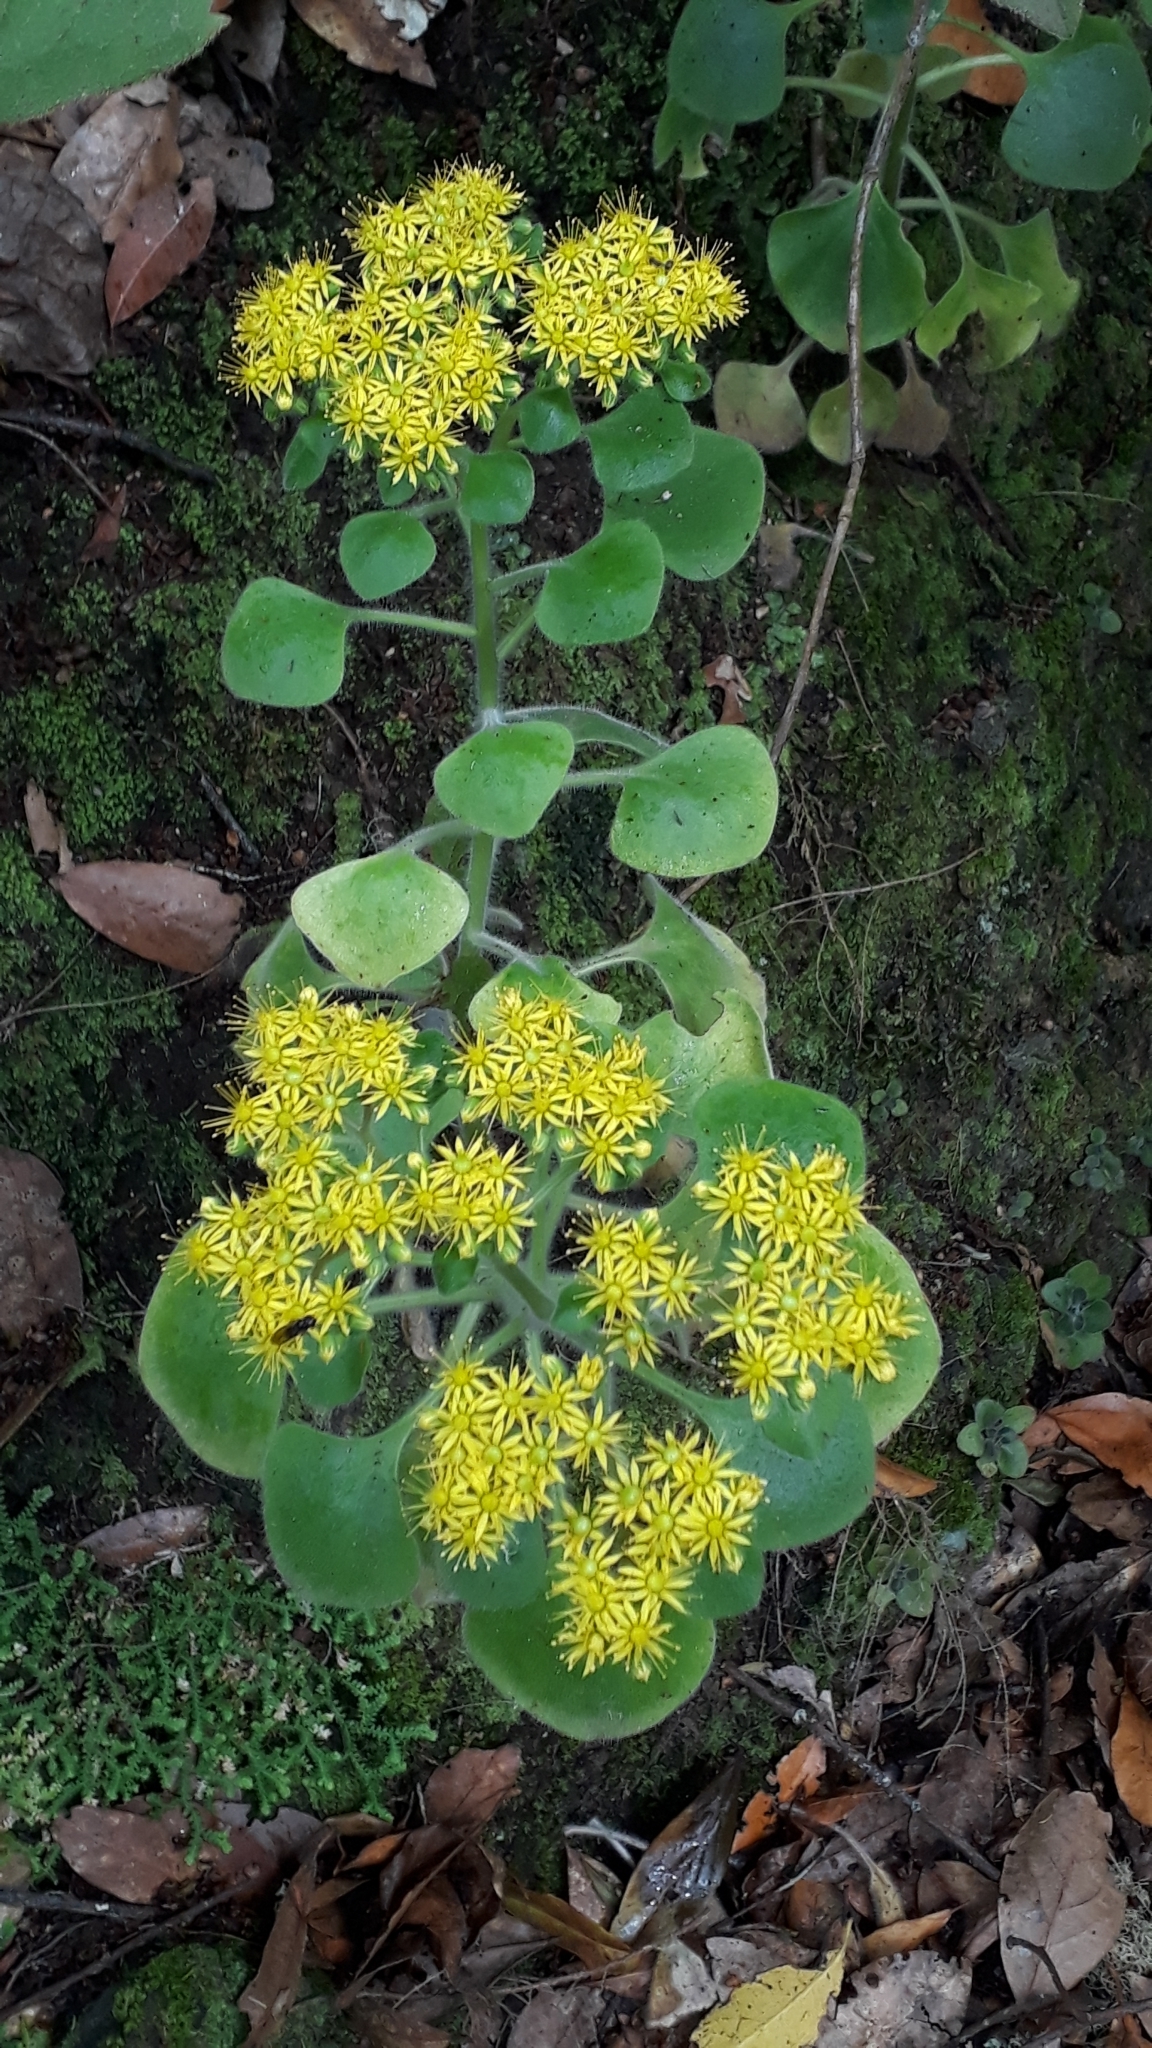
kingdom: Plantae
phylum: Tracheophyta
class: Magnoliopsida
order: Saxifragales
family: Crassulaceae
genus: Aichryson
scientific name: Aichryson laxum
